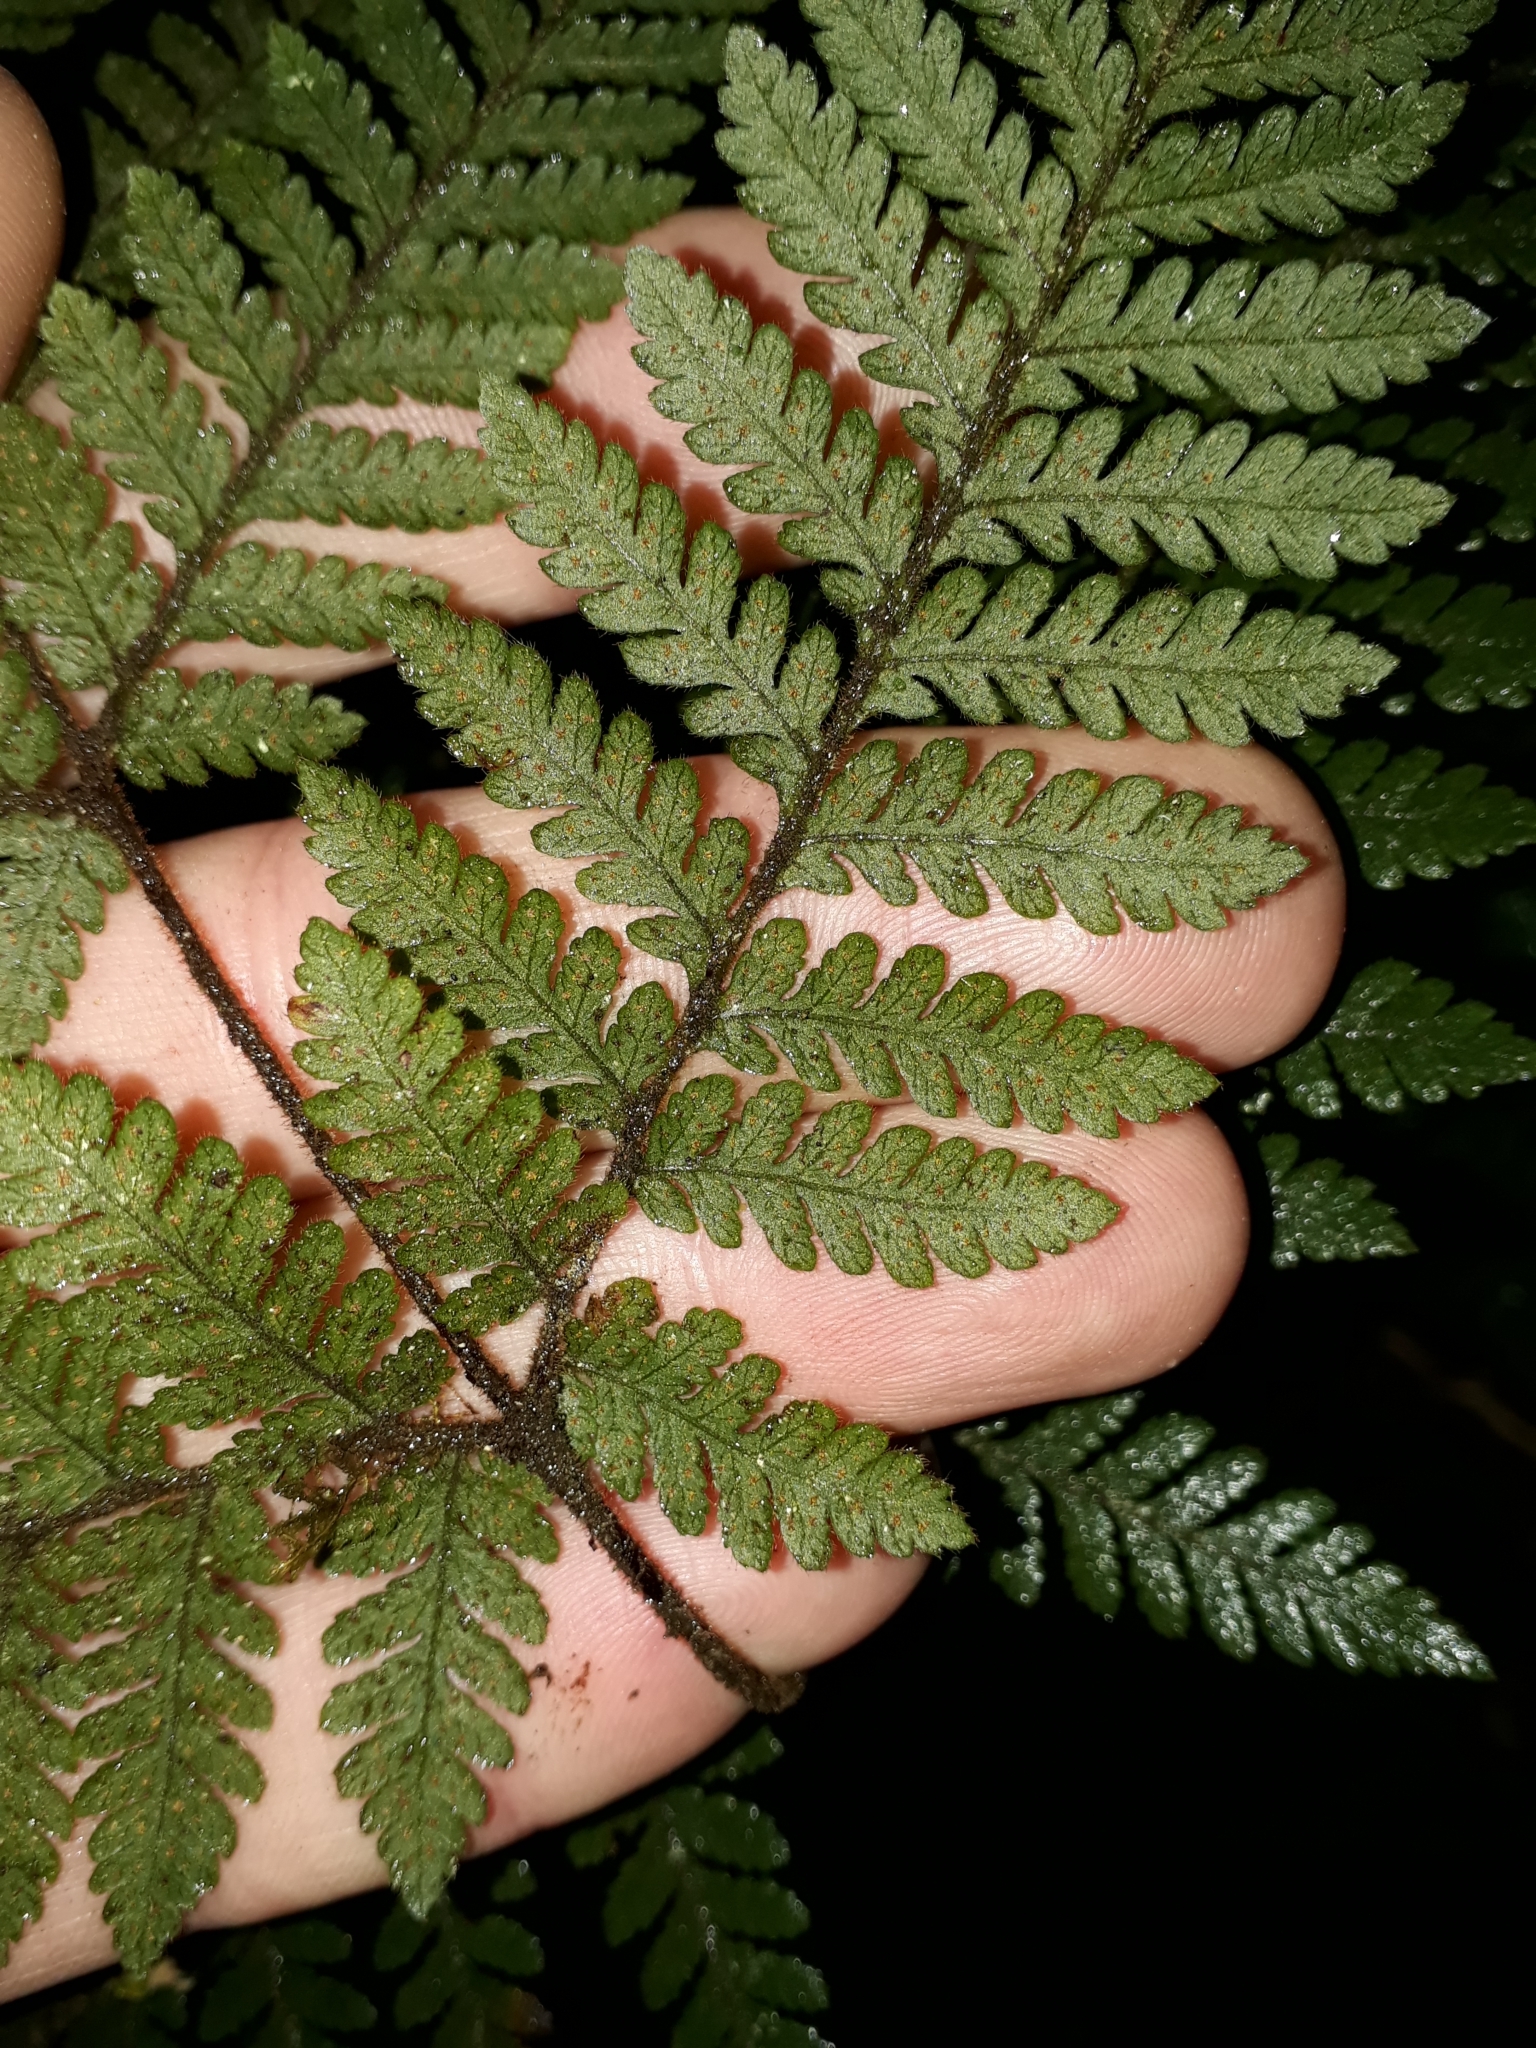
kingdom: Plantae
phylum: Tracheophyta
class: Polypodiopsida
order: Polypodiales
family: Dryopteridaceae
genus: Lastreopsis
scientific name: Lastreopsis velutina
